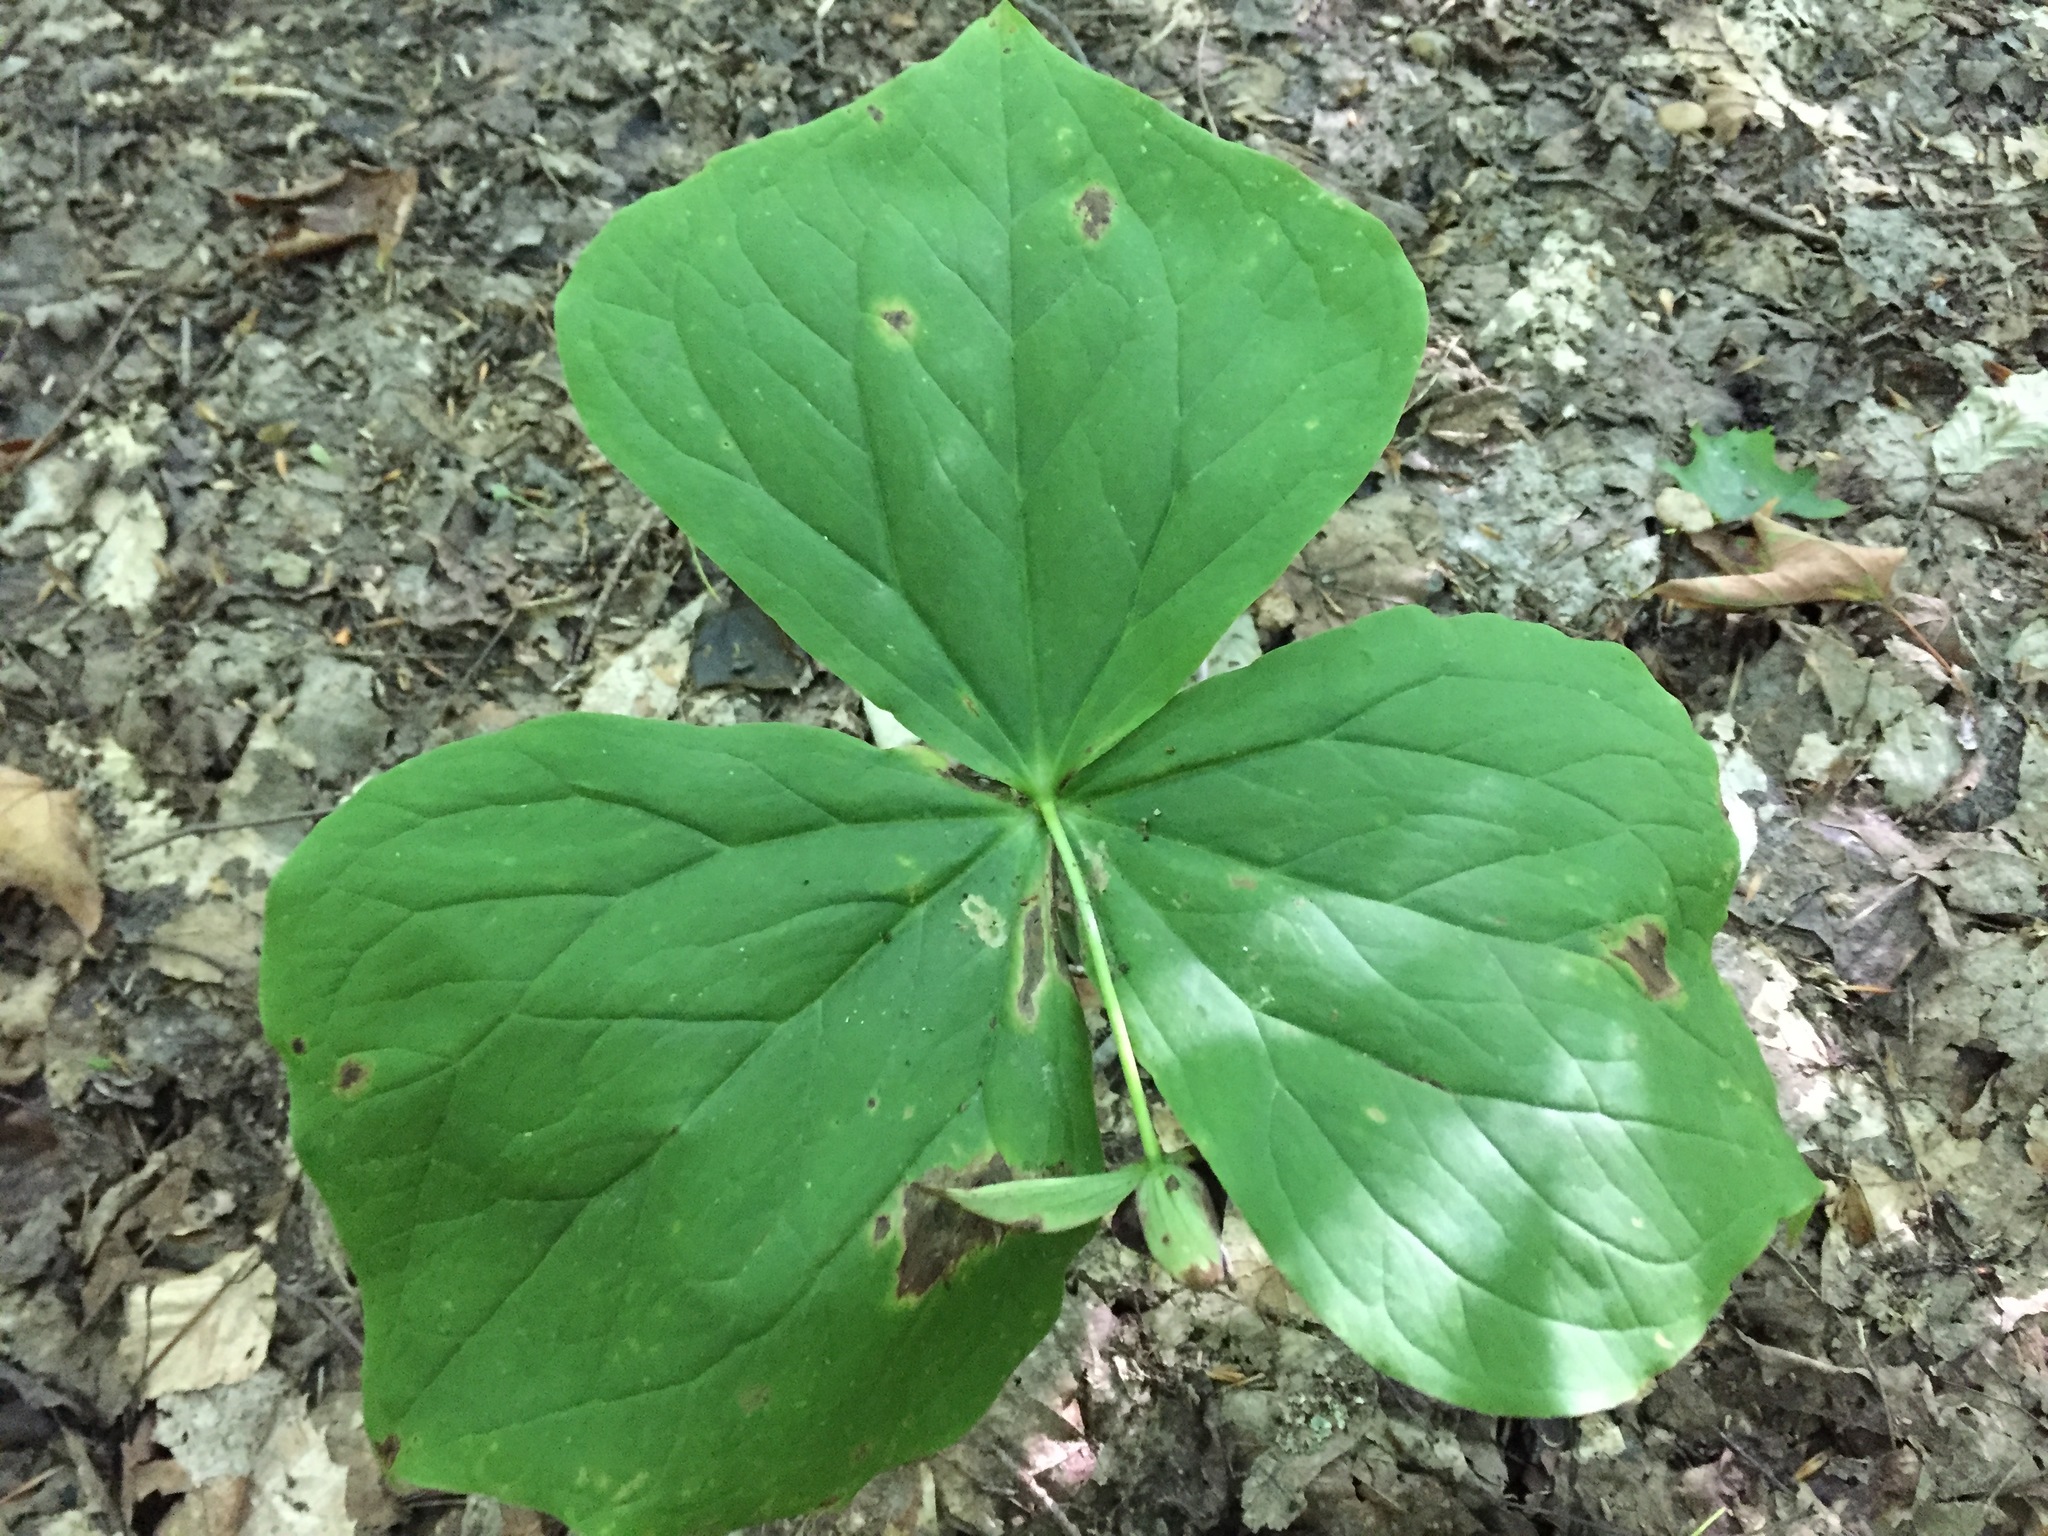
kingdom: Plantae
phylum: Tracheophyta
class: Liliopsida
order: Liliales
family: Melanthiaceae
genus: Trillium
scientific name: Trillium erectum
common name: Purple trillium
